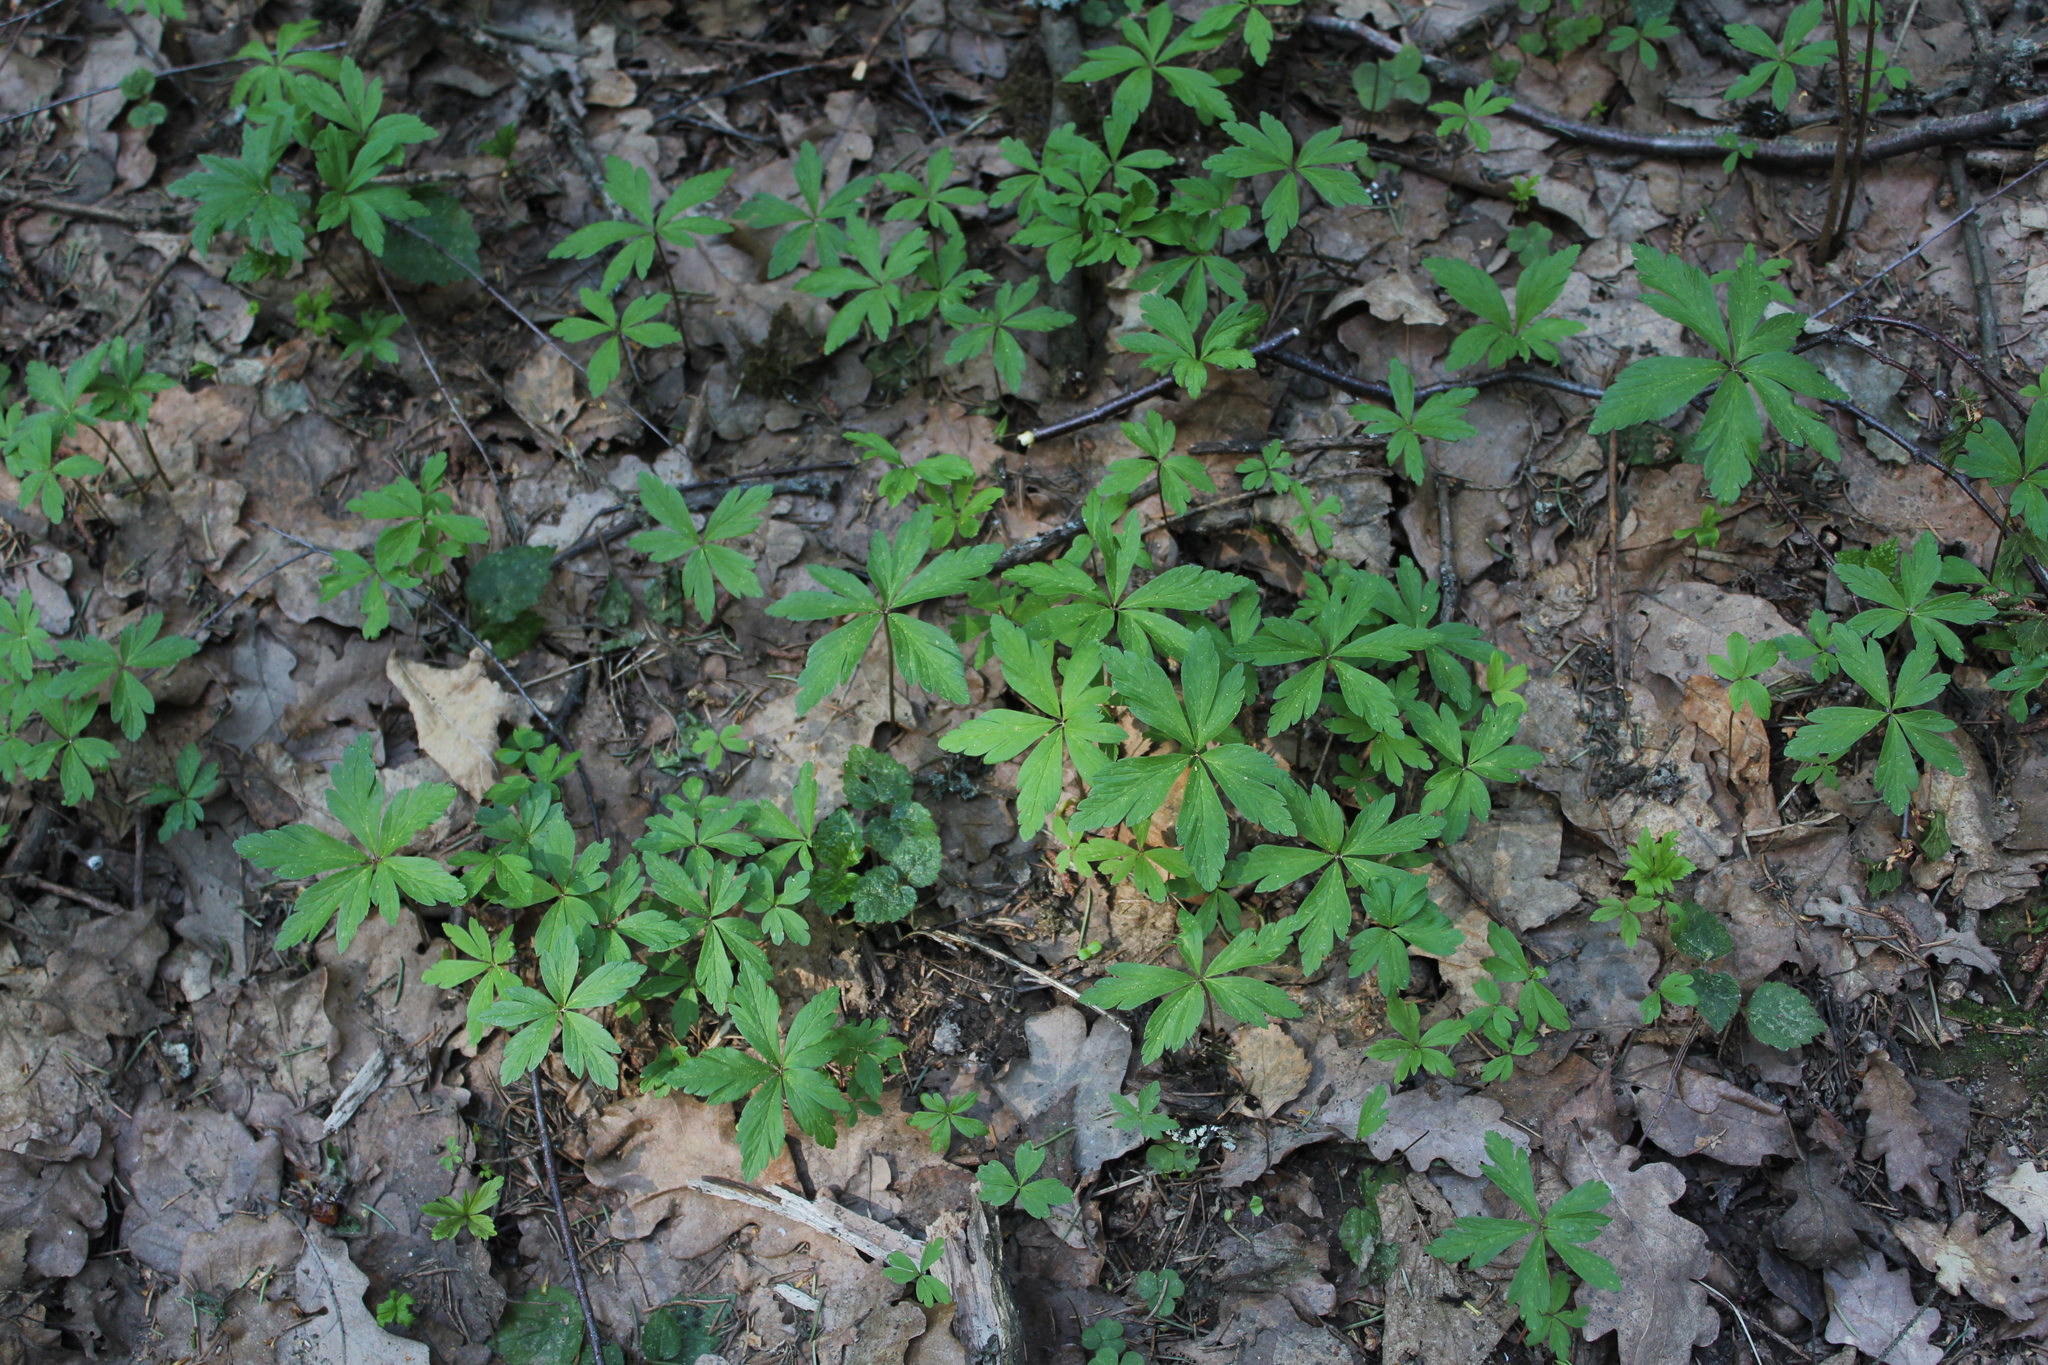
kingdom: Plantae
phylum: Tracheophyta
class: Magnoliopsida
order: Ranunculales
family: Ranunculaceae
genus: Anemone
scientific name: Anemone ranunculoides
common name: Yellow anemone
